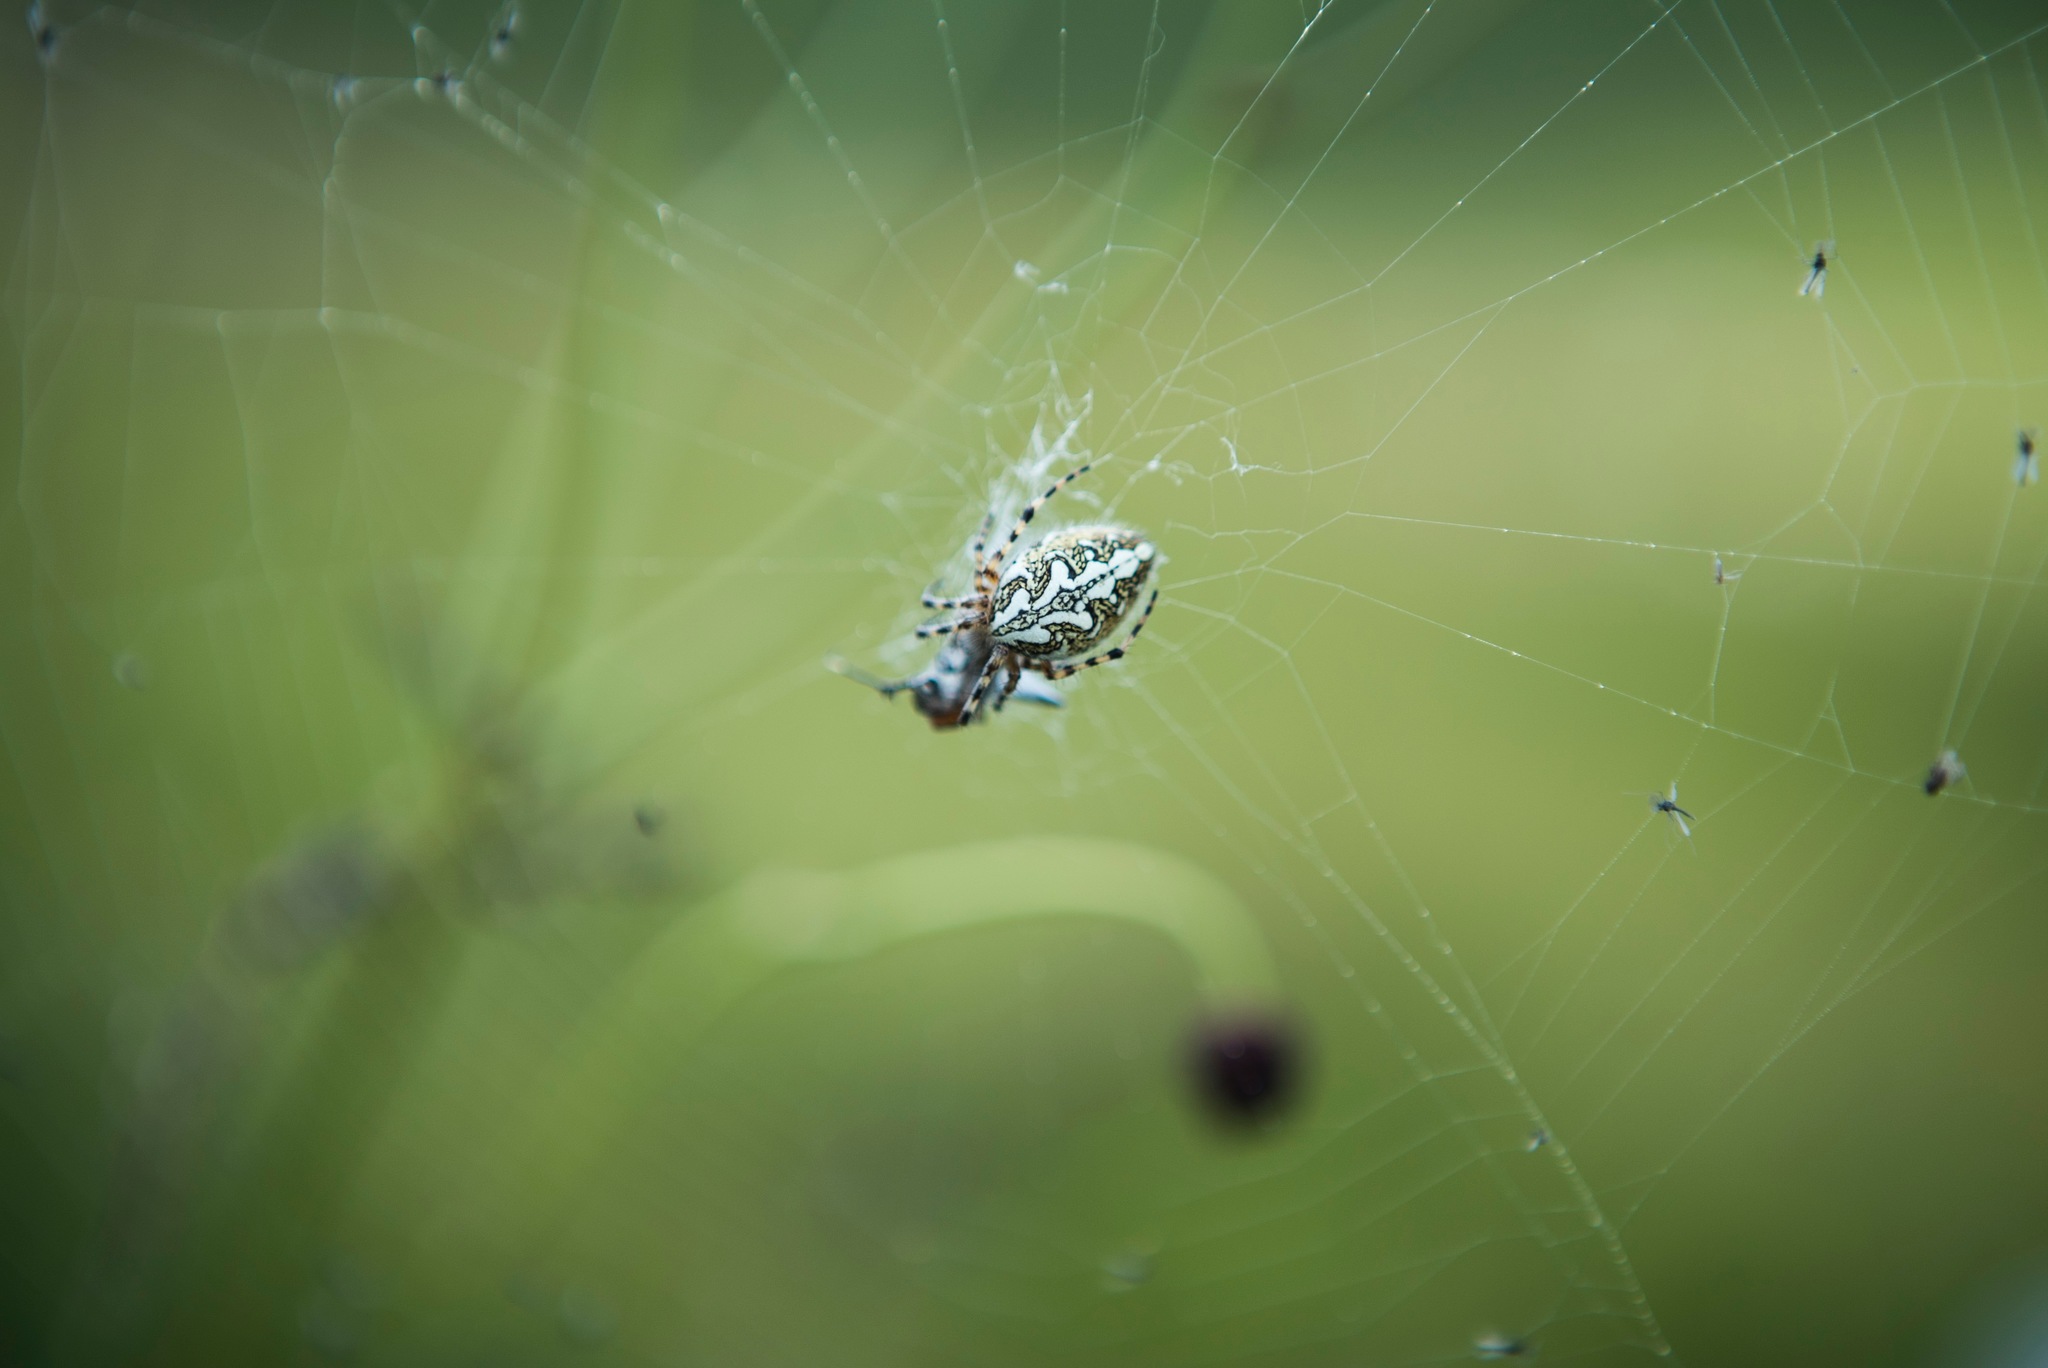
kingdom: Animalia
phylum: Arthropoda
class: Arachnida
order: Araneae
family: Araneidae
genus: Aculepeira
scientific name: Aculepeira ceropegia
